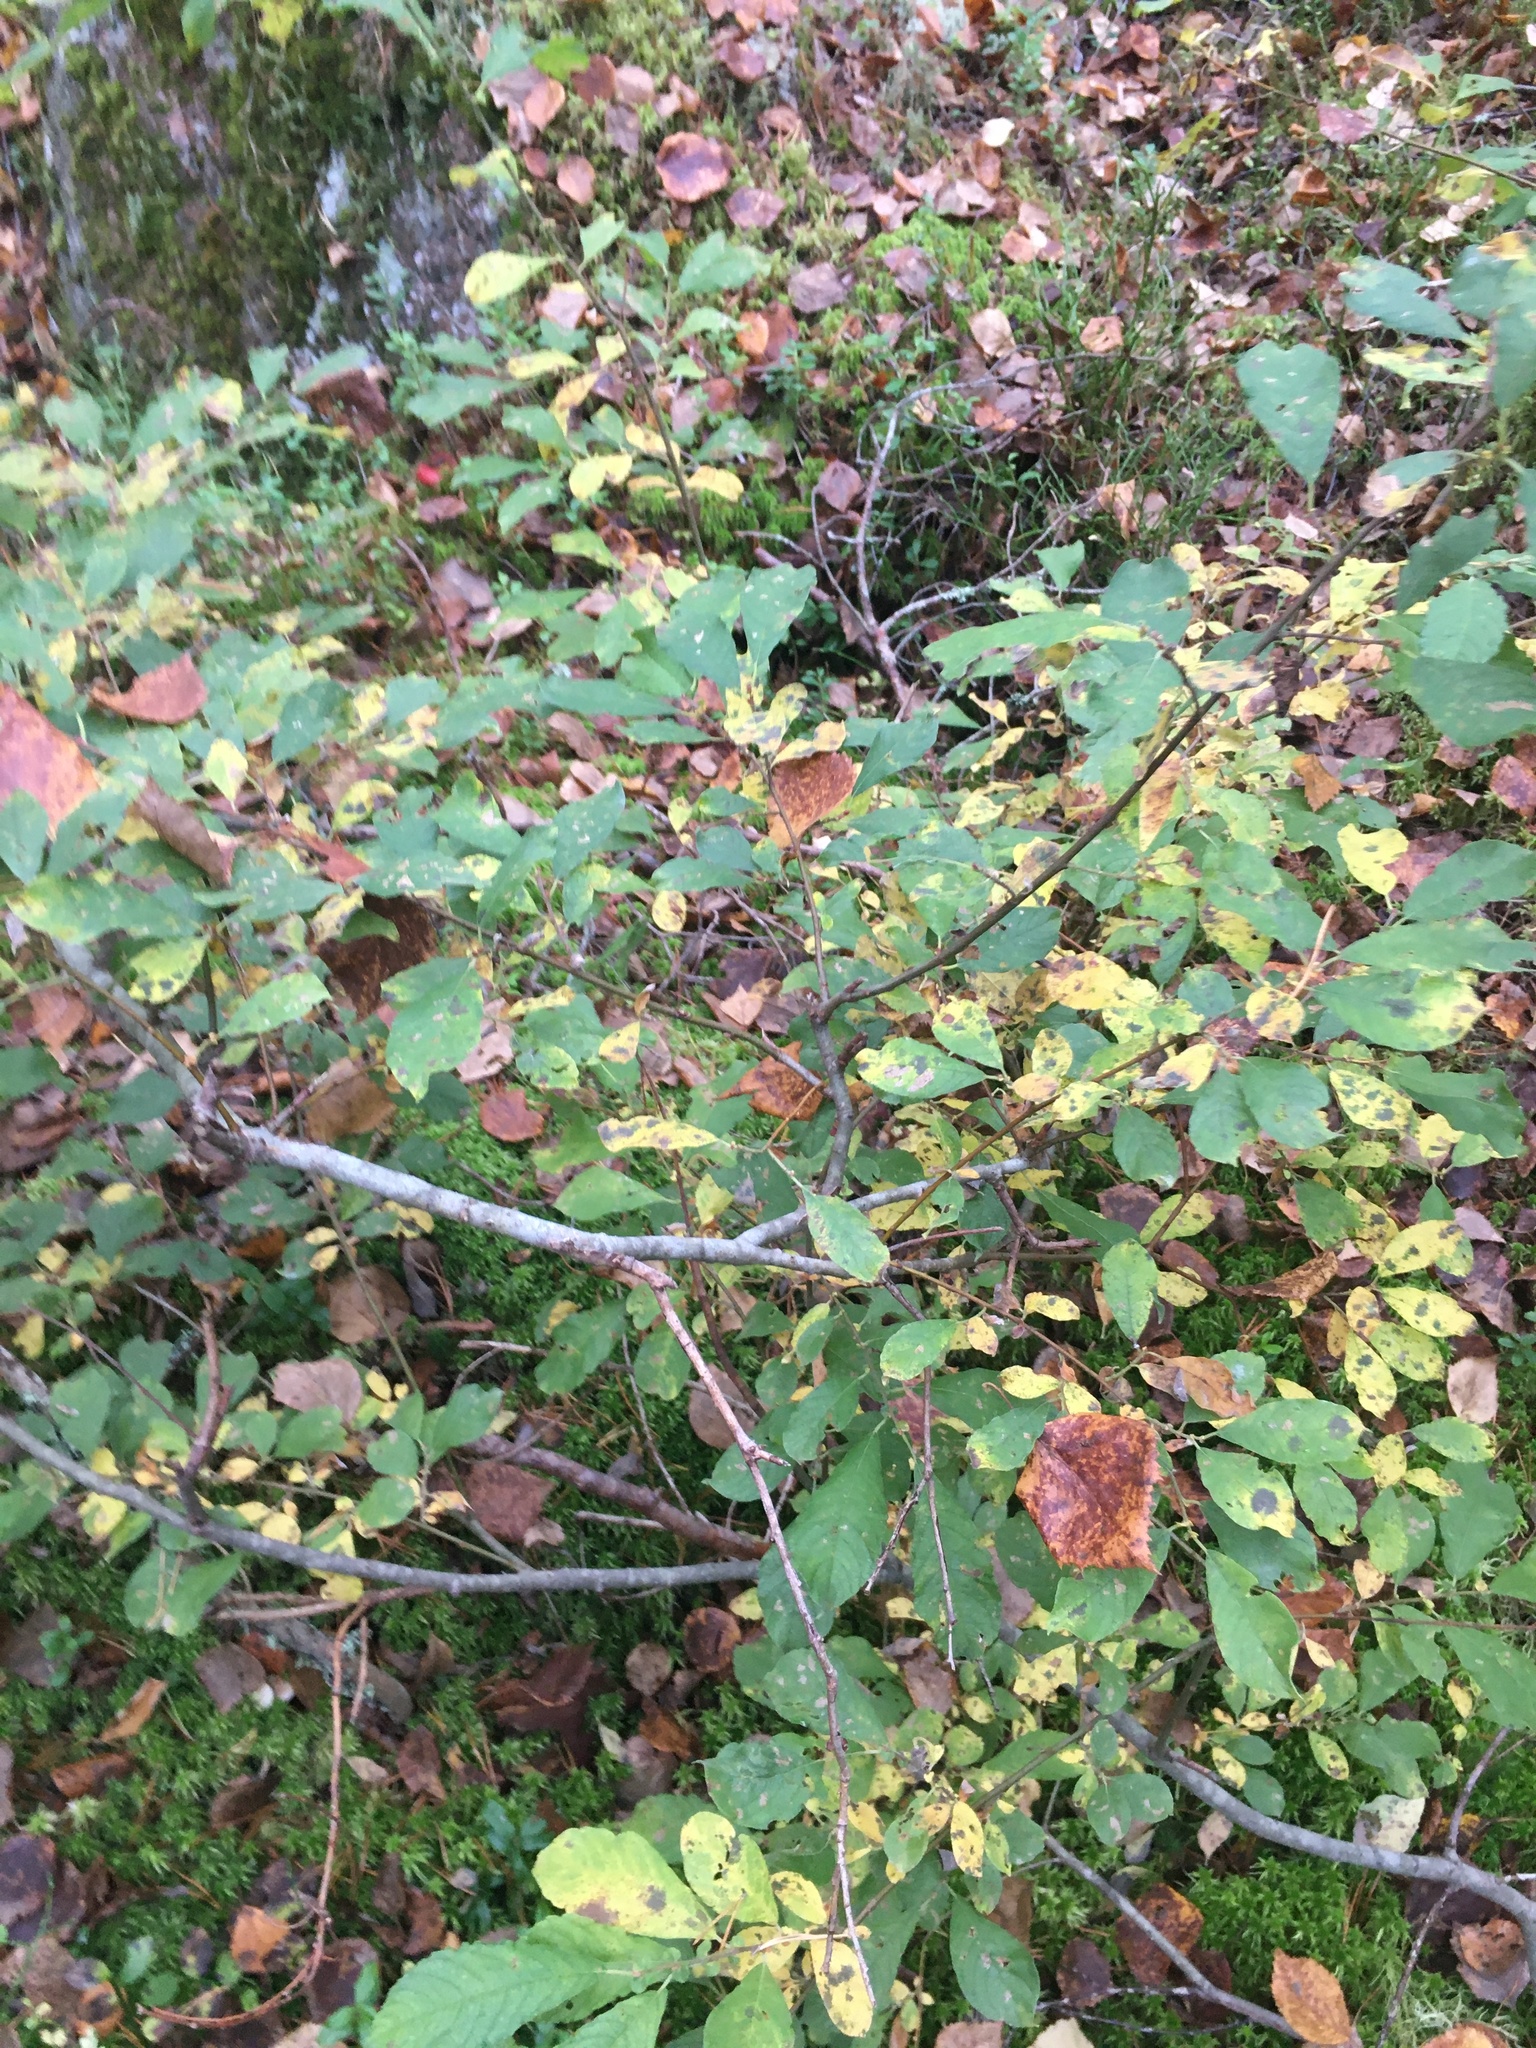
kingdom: Plantae
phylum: Tracheophyta
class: Magnoliopsida
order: Malpighiales
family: Salicaceae
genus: Salix
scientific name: Salix cinerea
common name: Common sallow
